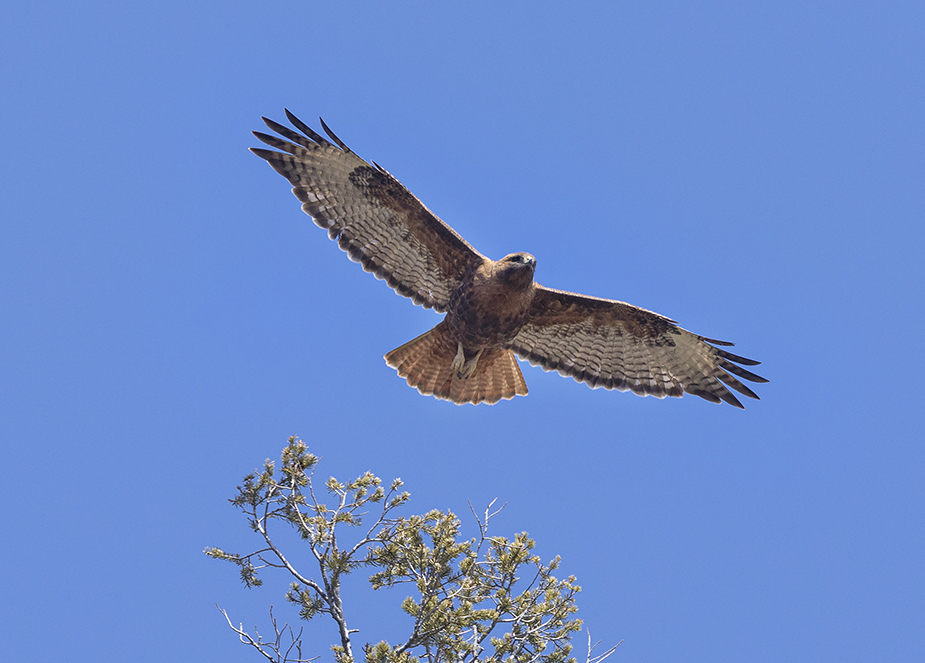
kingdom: Animalia
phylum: Chordata
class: Aves
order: Accipitriformes
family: Accipitridae
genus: Buteo
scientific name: Buteo jamaicensis
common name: Red-tailed hawk
